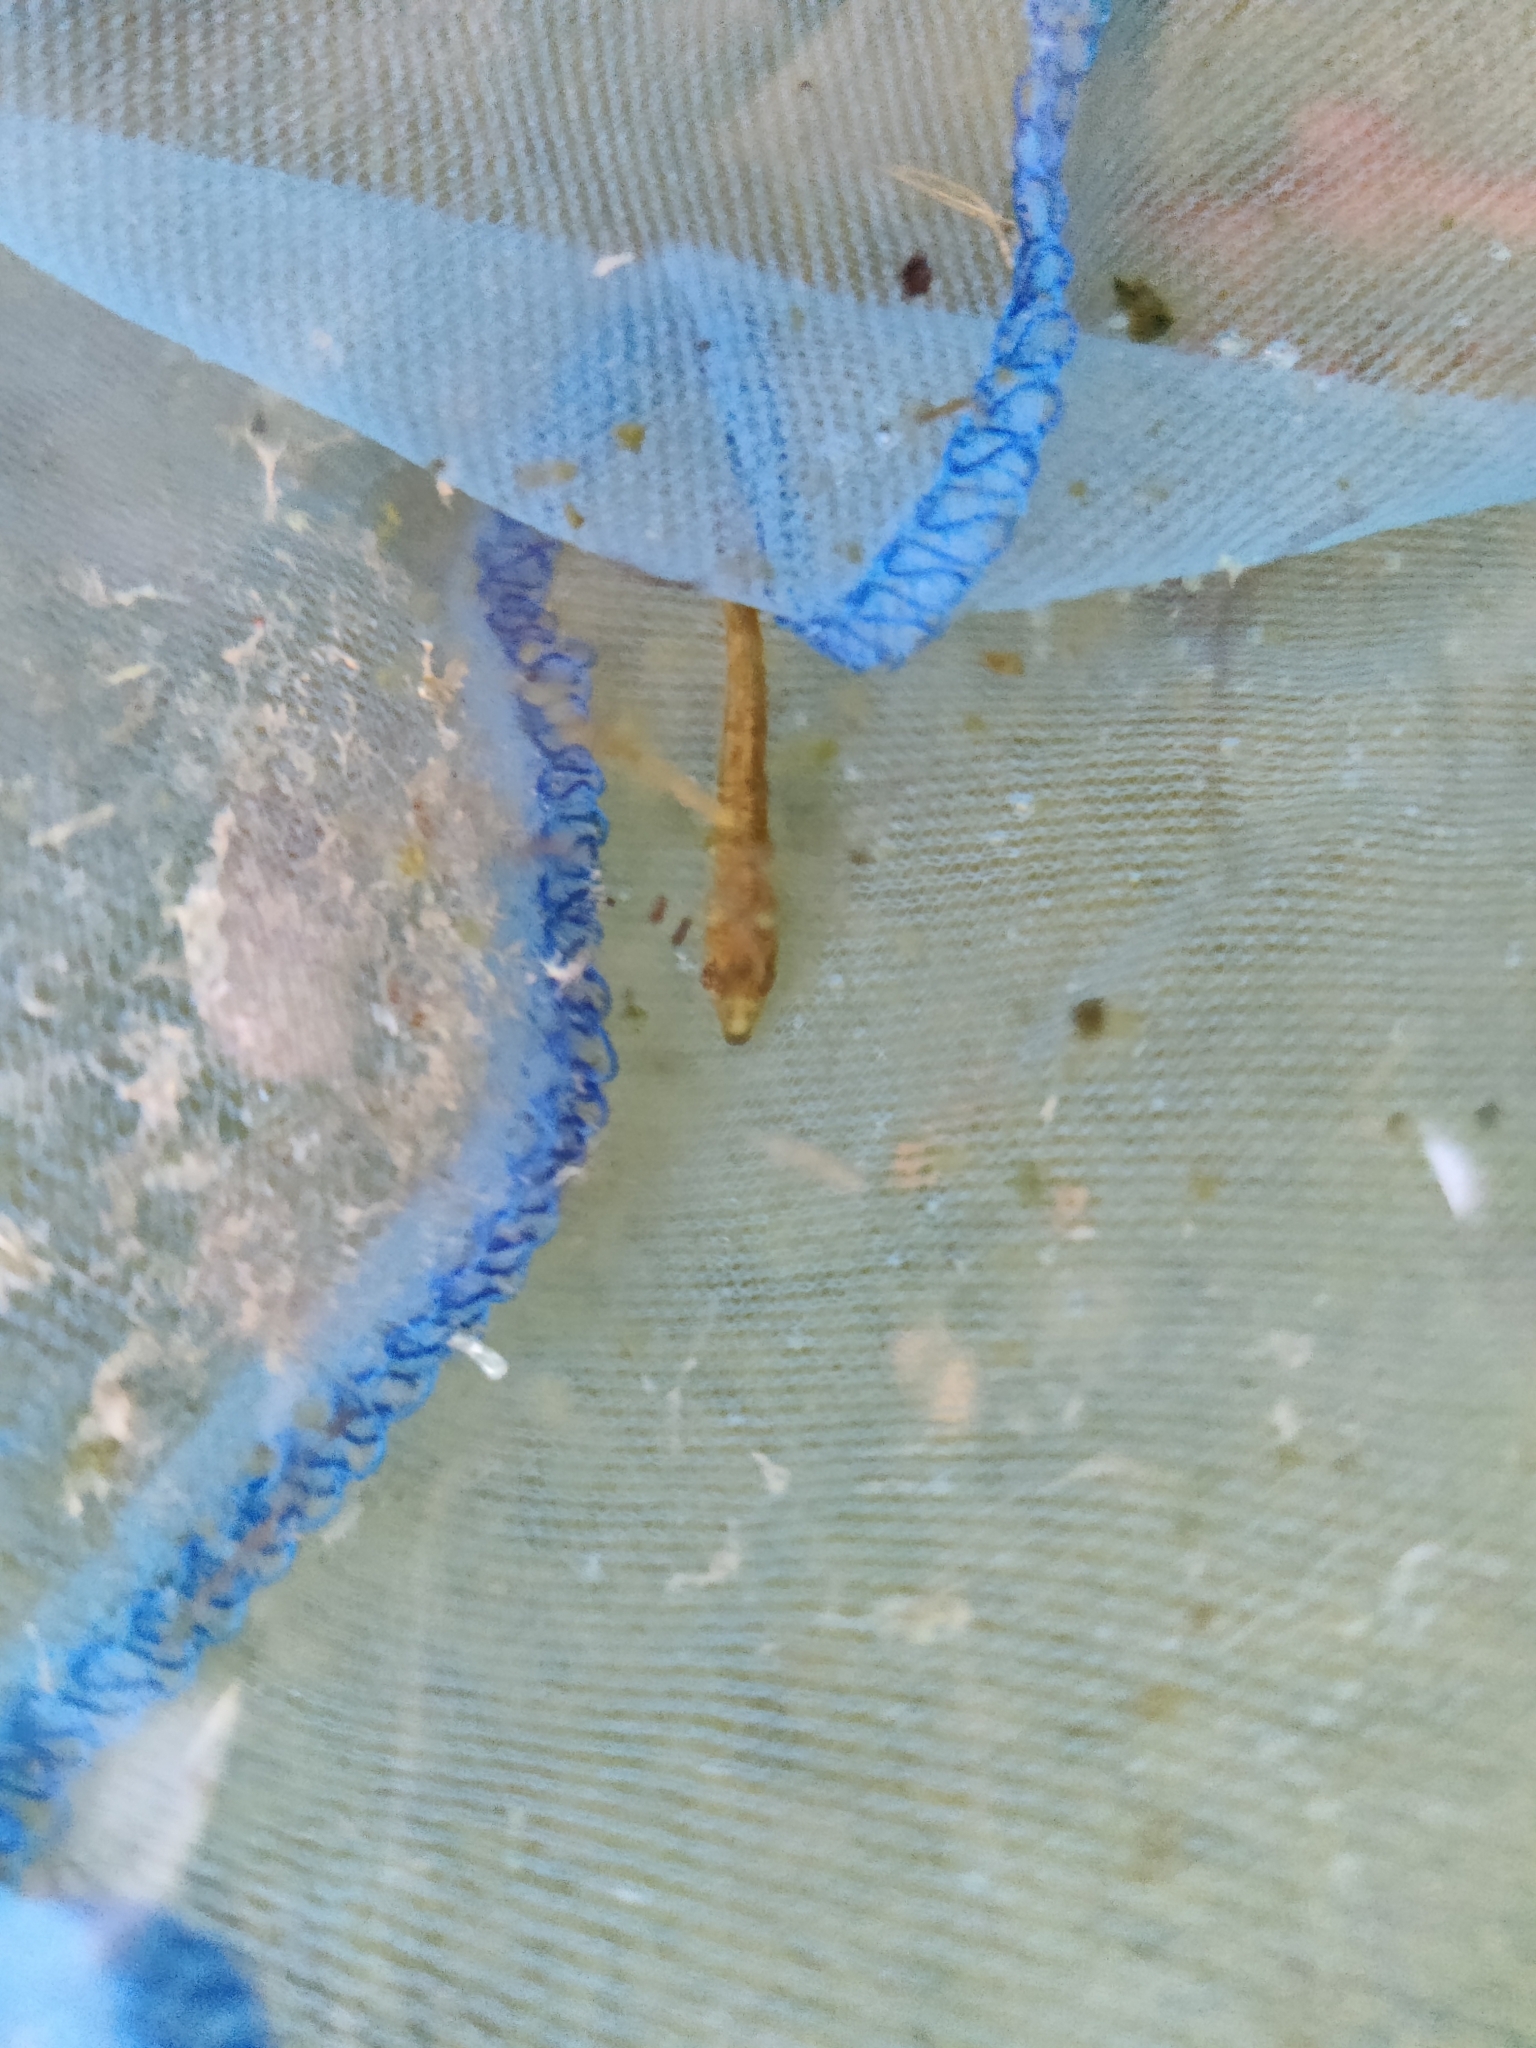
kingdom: Animalia
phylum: Chordata
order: Gasterosteiformes
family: Gasterosteidae
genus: Gasterosteus
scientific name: Gasterosteus aculeatus
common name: Three-spined stickleback
